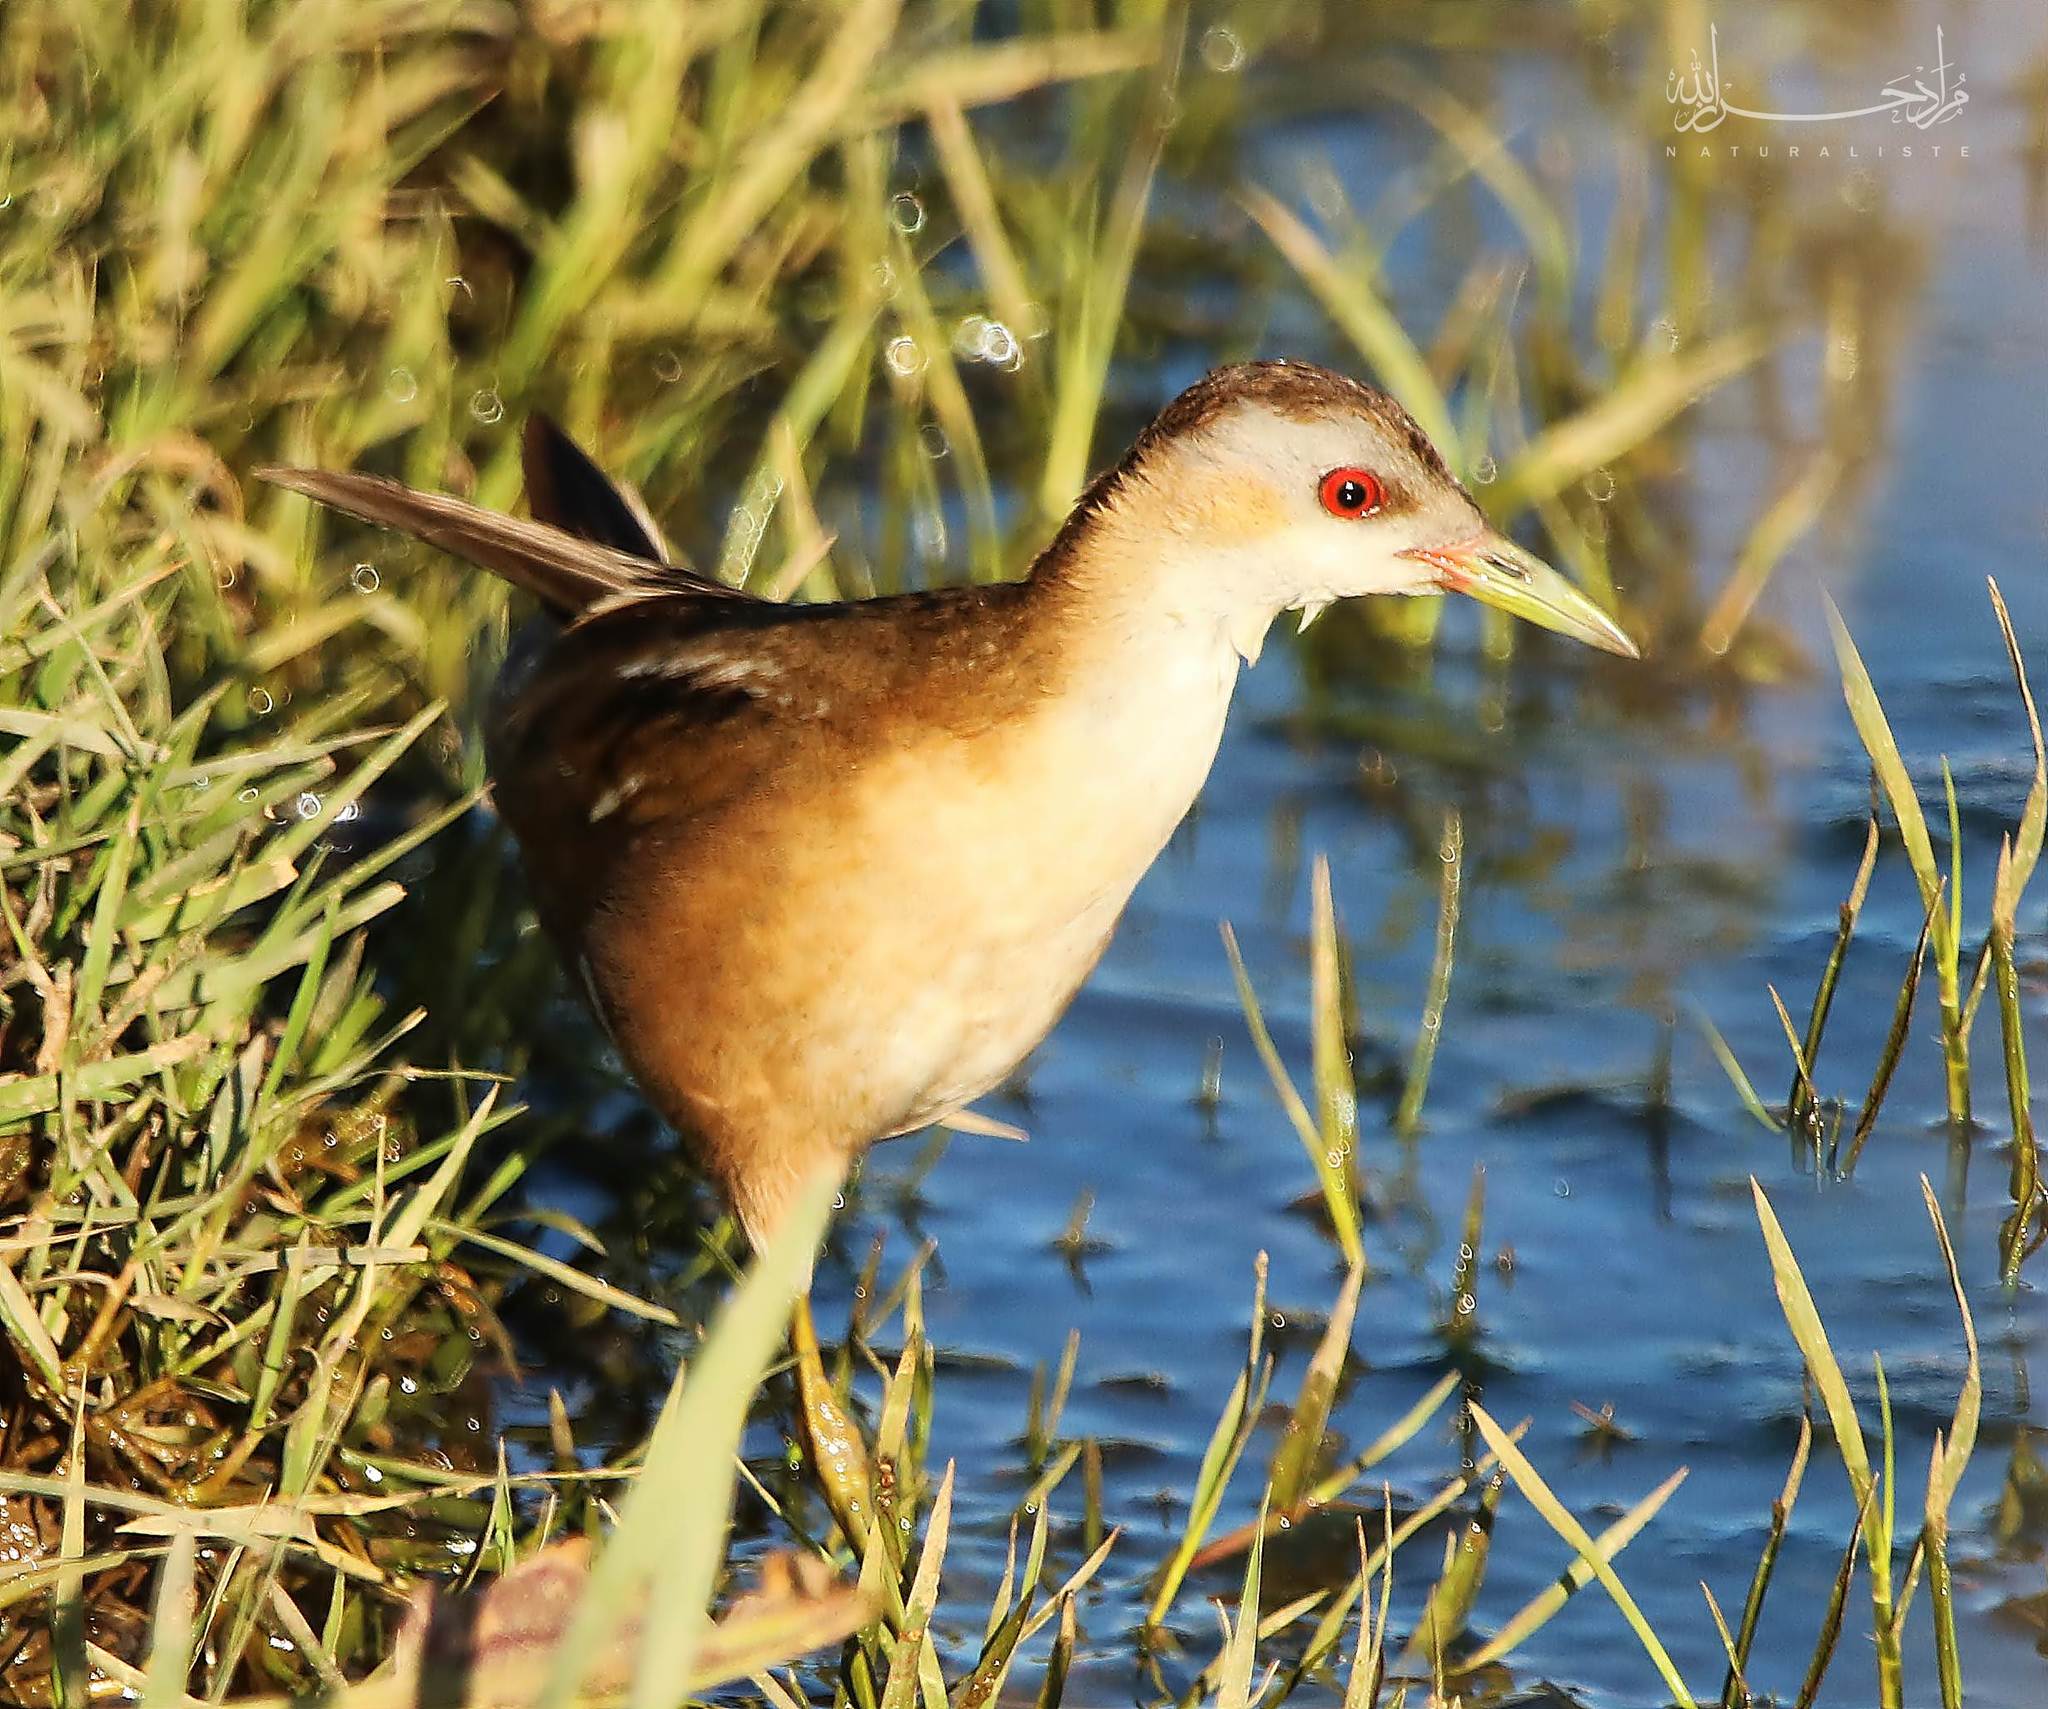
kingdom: Animalia
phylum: Chordata
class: Aves
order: Gruiformes
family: Rallidae
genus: Porzana
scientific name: Porzana parva
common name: Little crake
